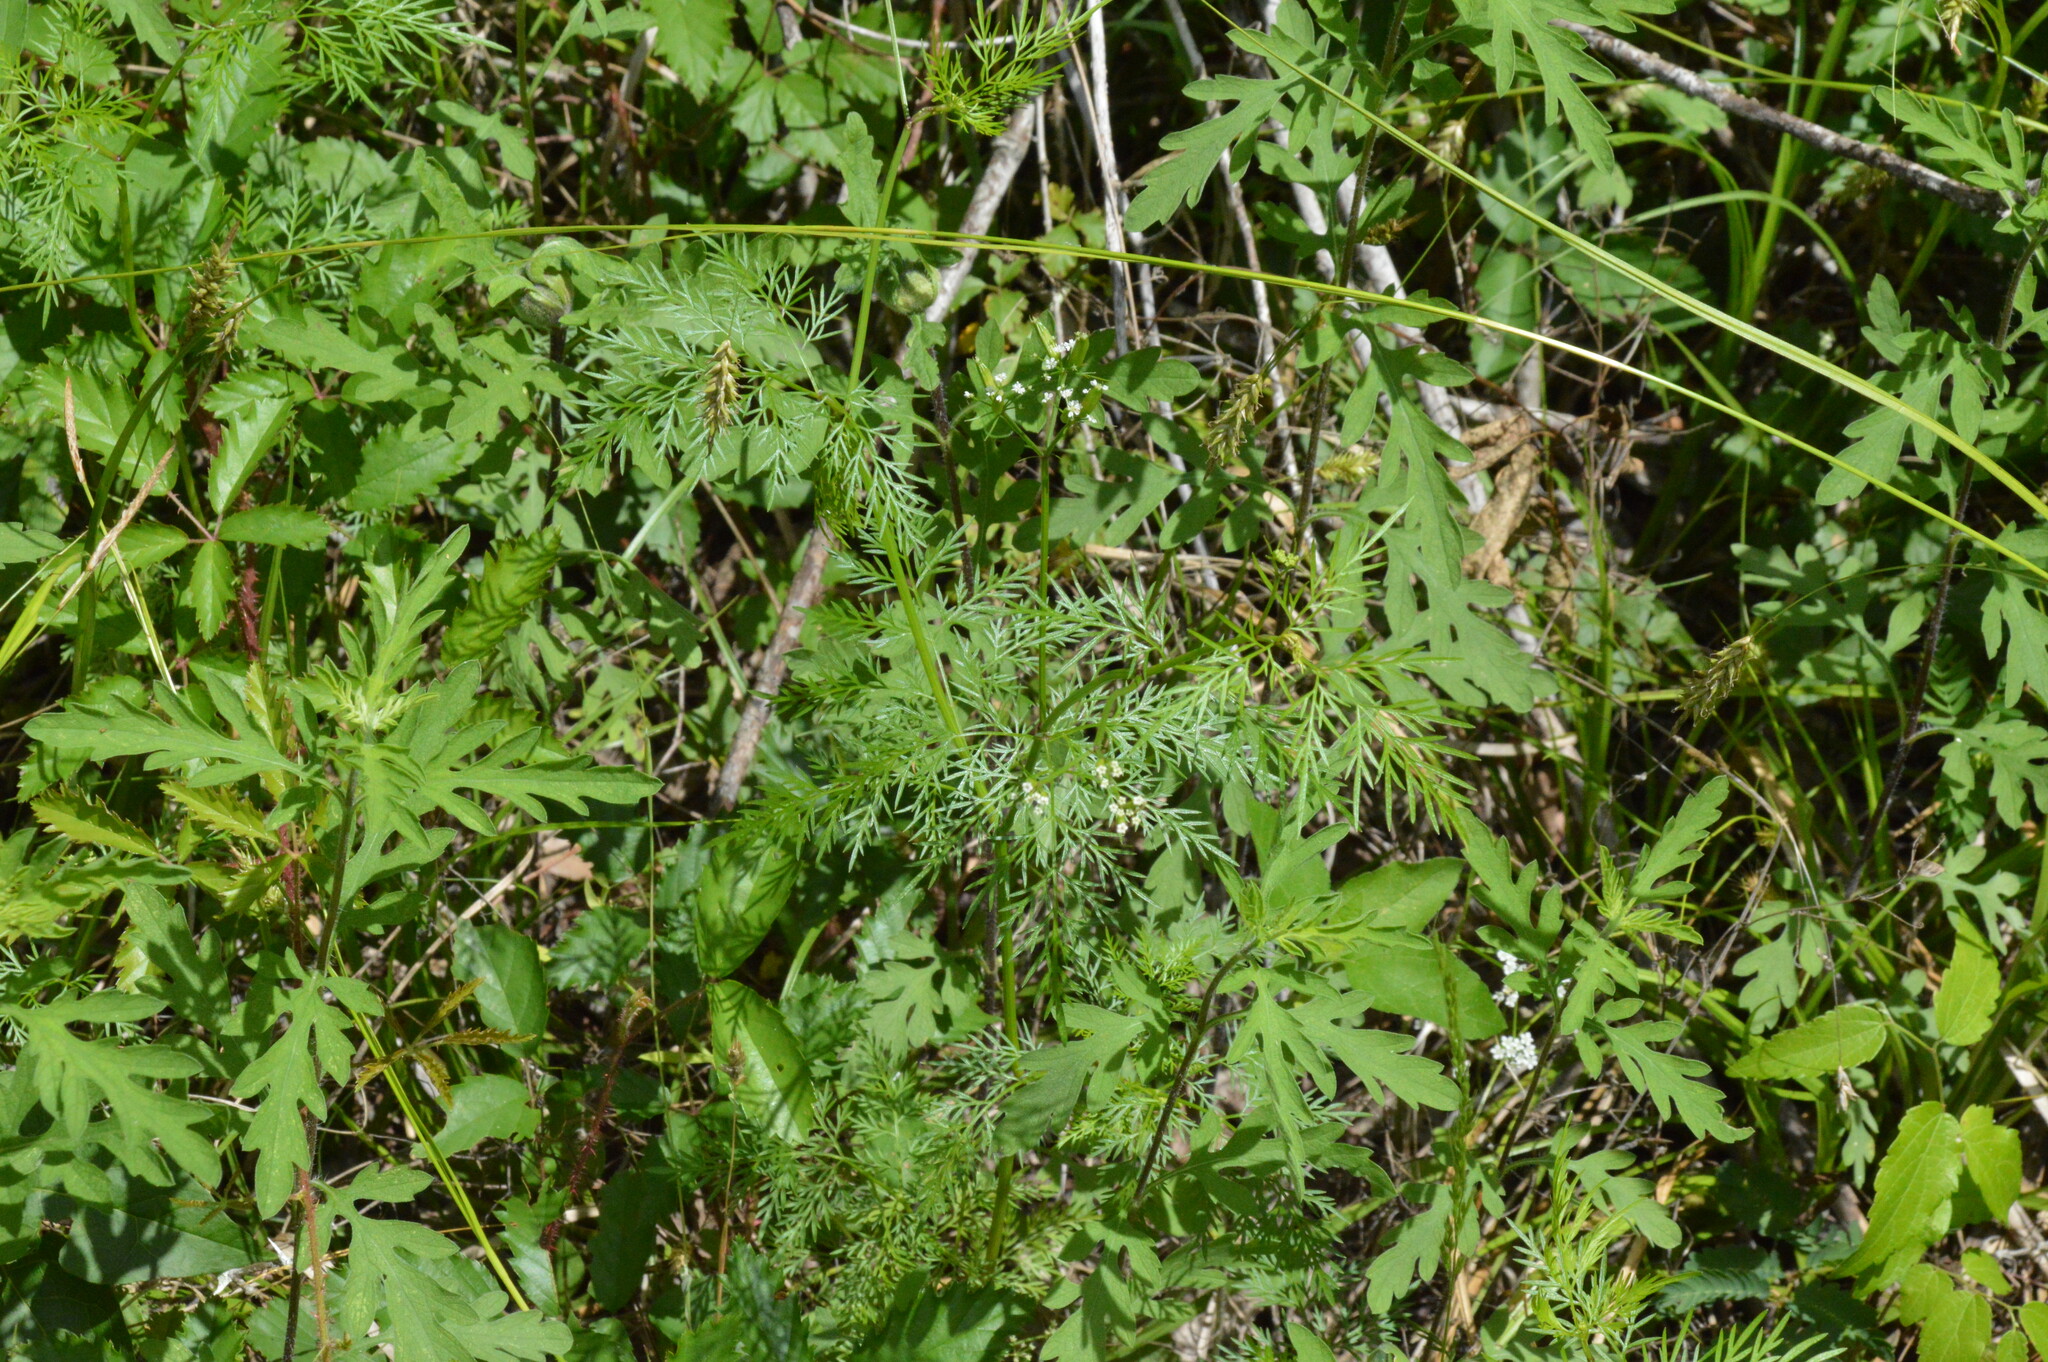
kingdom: Plantae
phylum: Tracheophyta
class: Magnoliopsida
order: Apiales
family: Apiaceae
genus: Trepocarpus
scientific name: Trepocarpus aethusae
